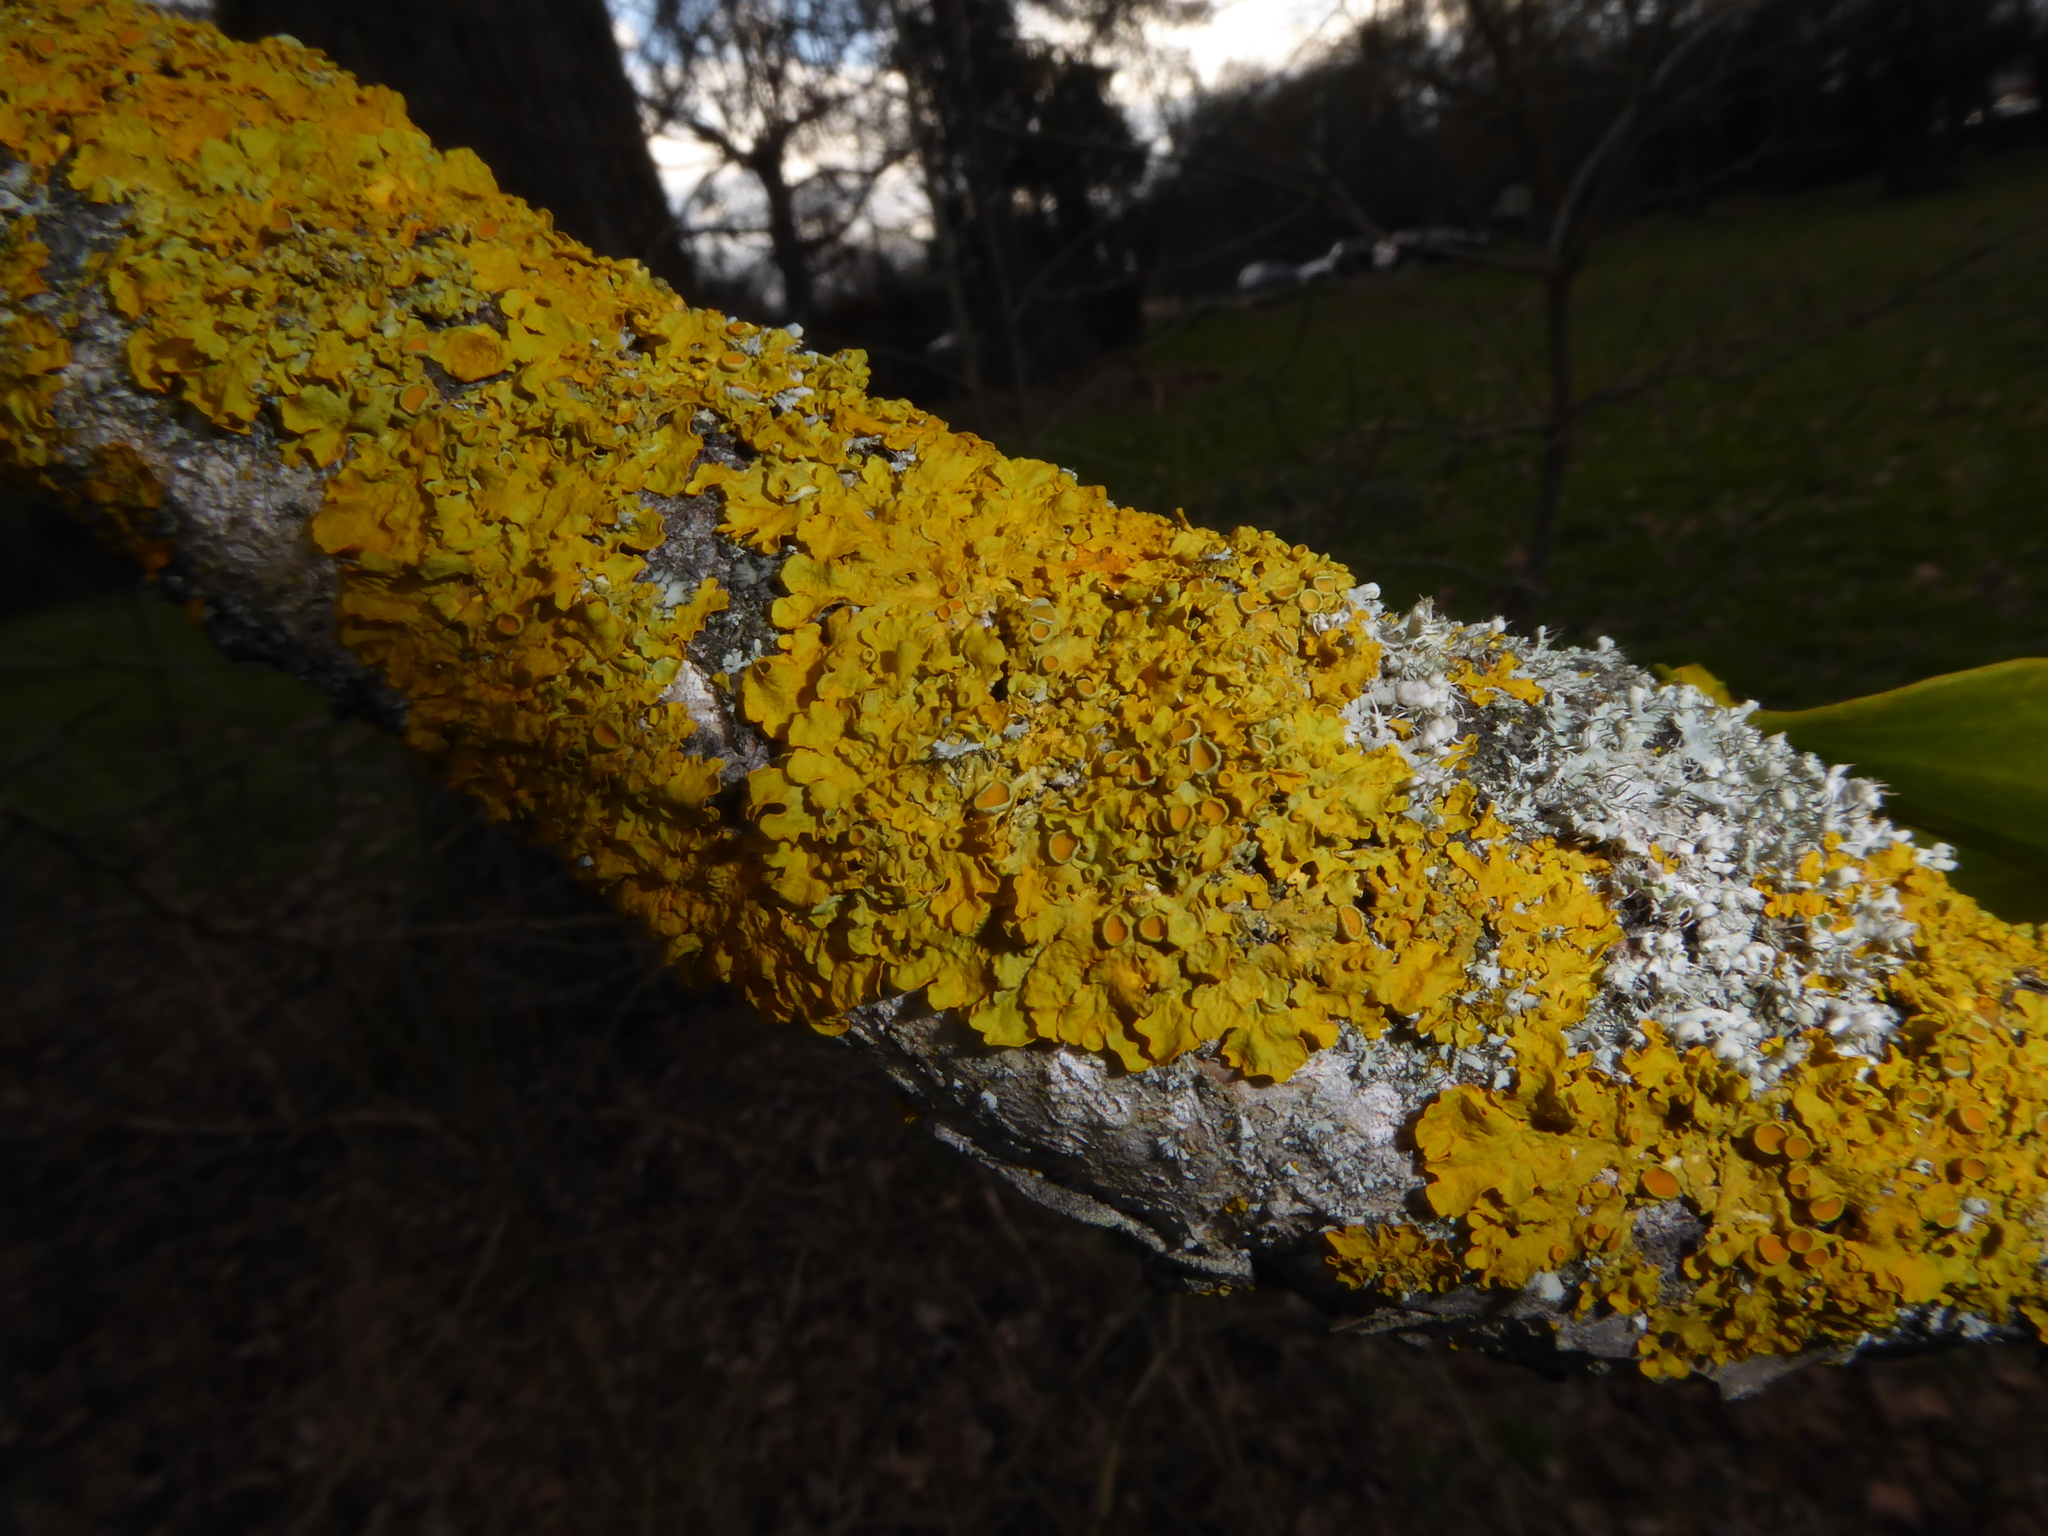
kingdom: Fungi
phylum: Ascomycota
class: Lecanoromycetes
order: Teloschistales
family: Teloschistaceae
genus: Xanthoria
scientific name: Xanthoria parietina
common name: Common orange lichen
